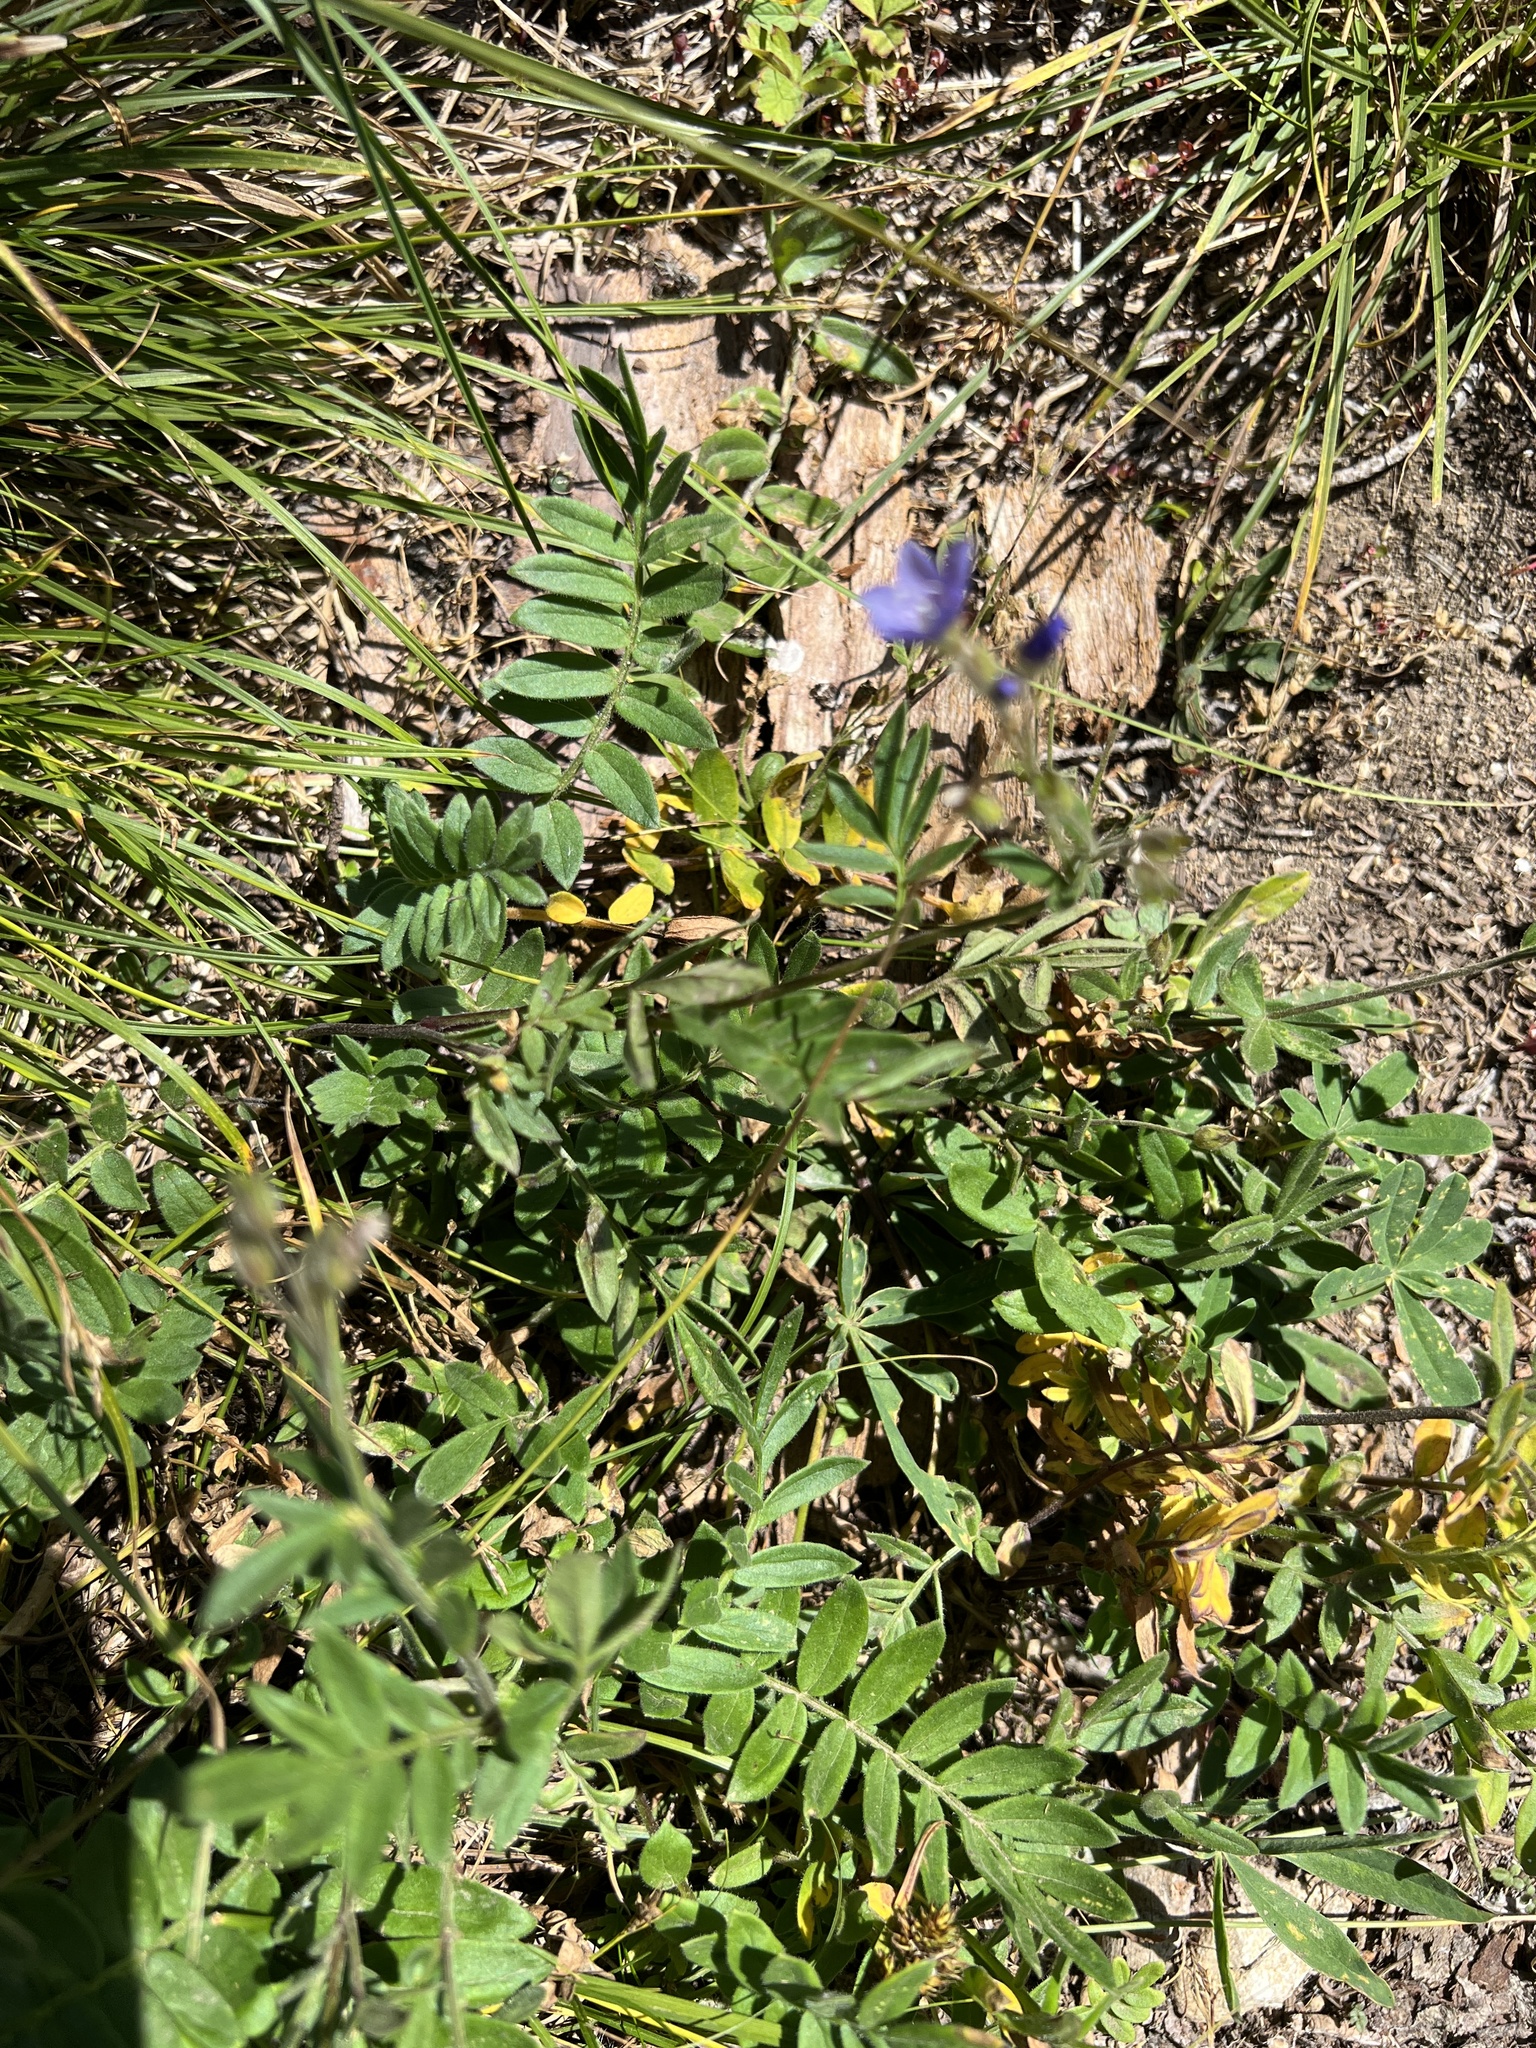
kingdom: Plantae
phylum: Tracheophyta
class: Magnoliopsida
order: Ericales
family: Polemoniaceae
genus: Polemonium
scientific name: Polemonium californicum
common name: California jacob's ladder
